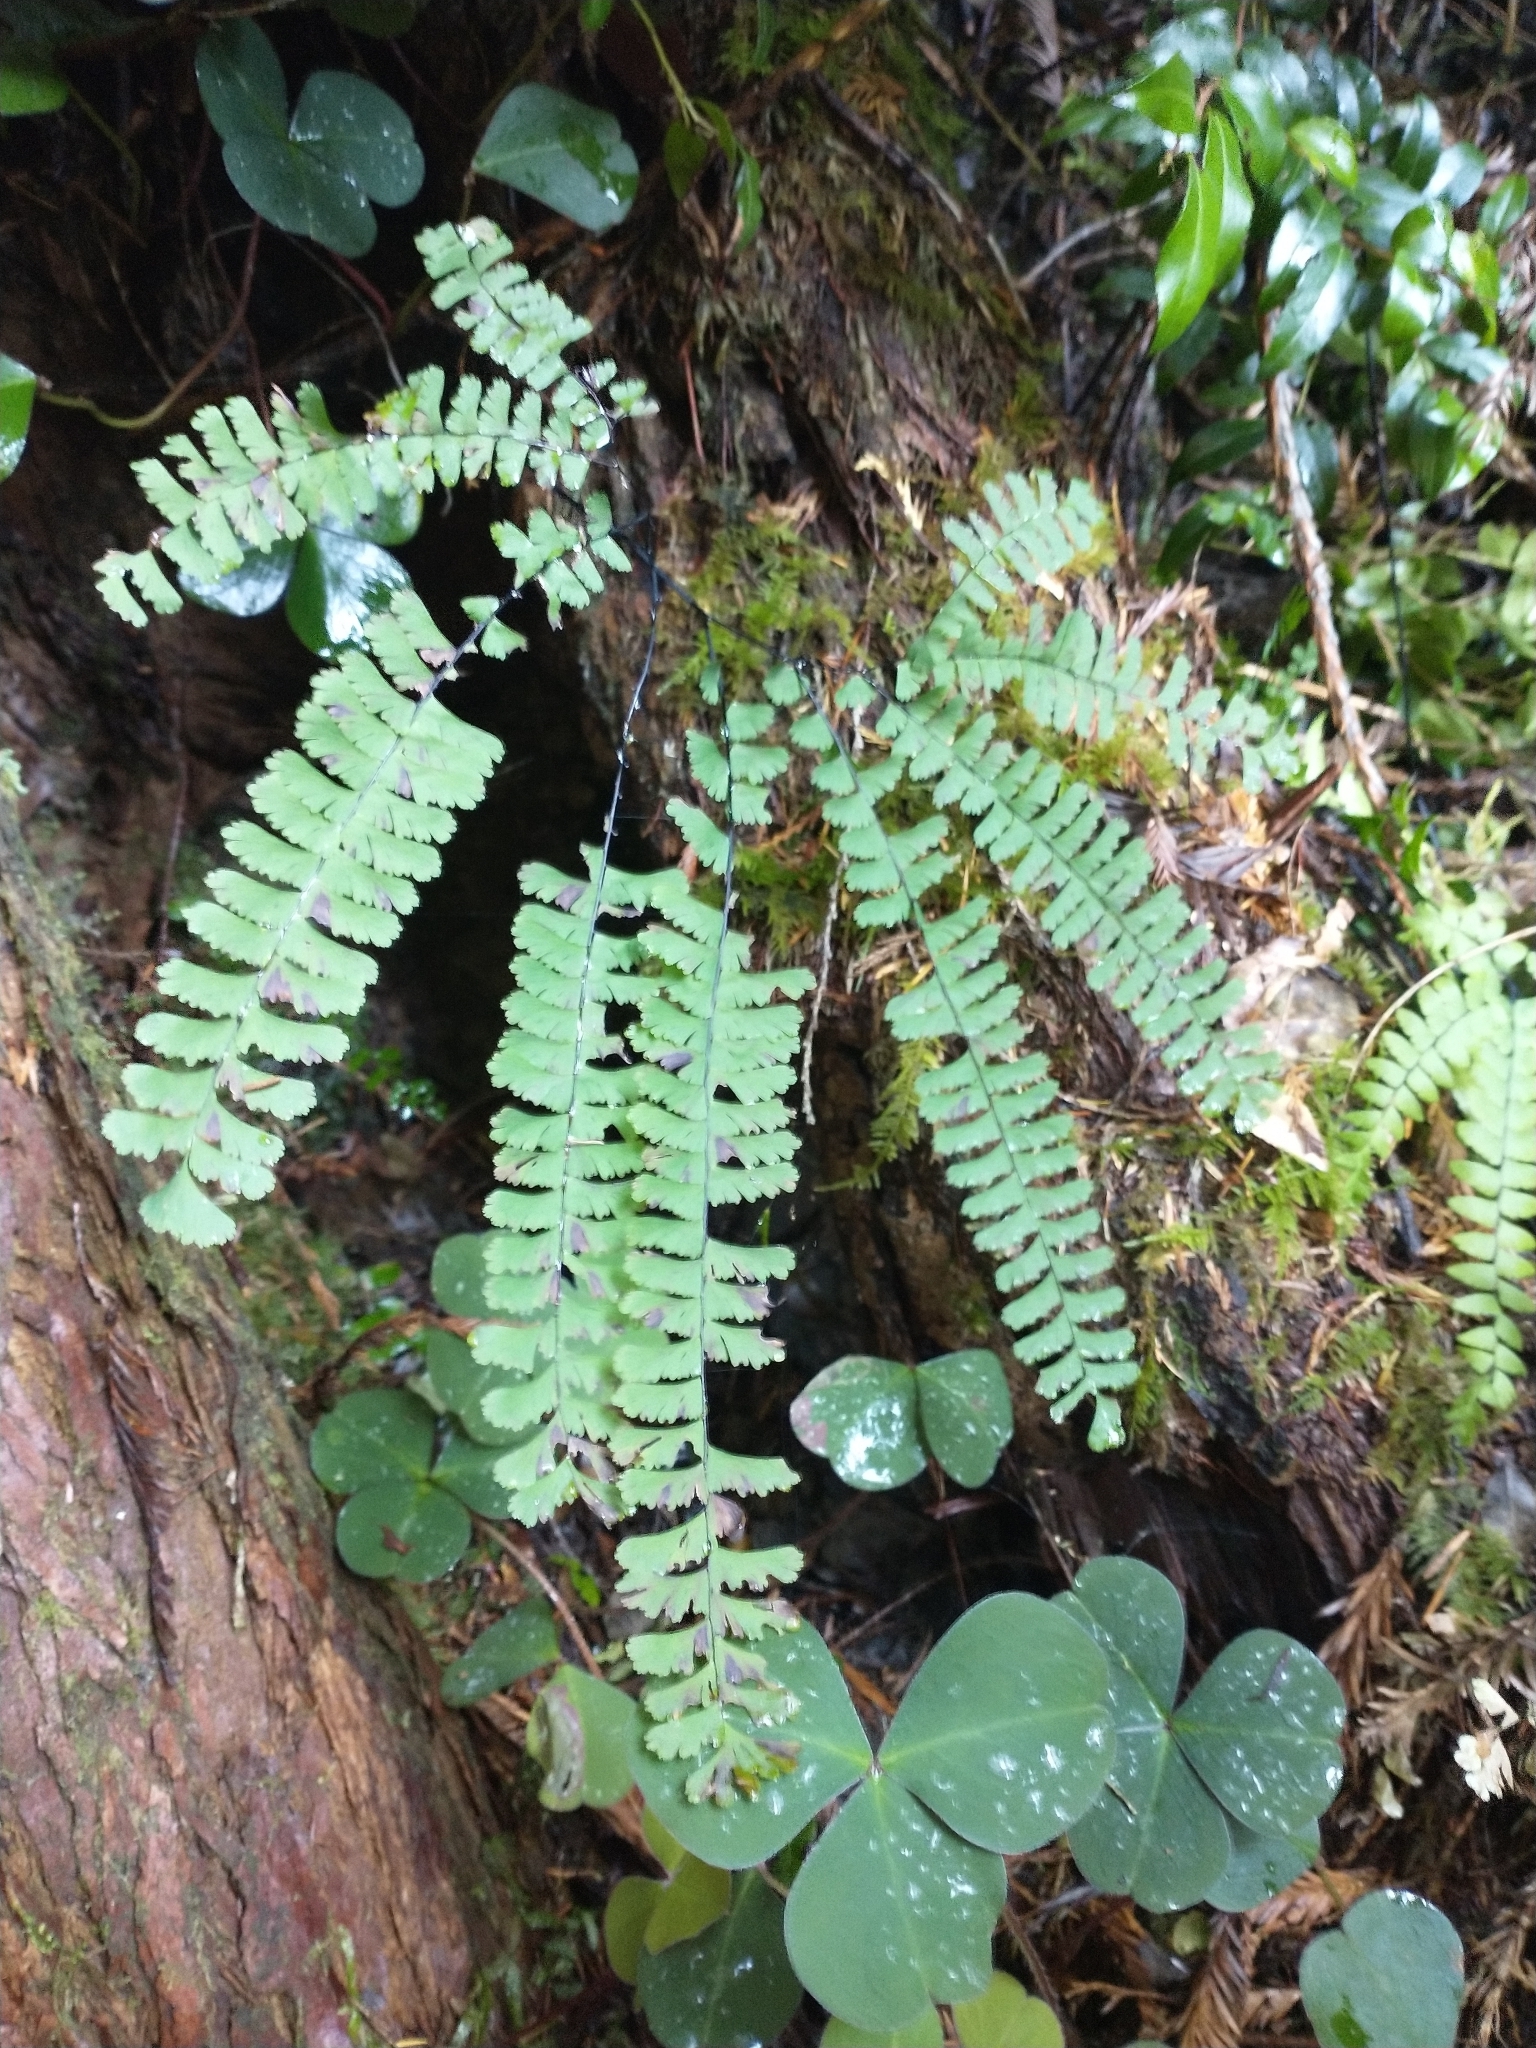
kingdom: Plantae
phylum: Tracheophyta
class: Polypodiopsida
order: Polypodiales
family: Pteridaceae
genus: Adiantum
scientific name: Adiantum aleuticum
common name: Aleutian maidenhair fern
